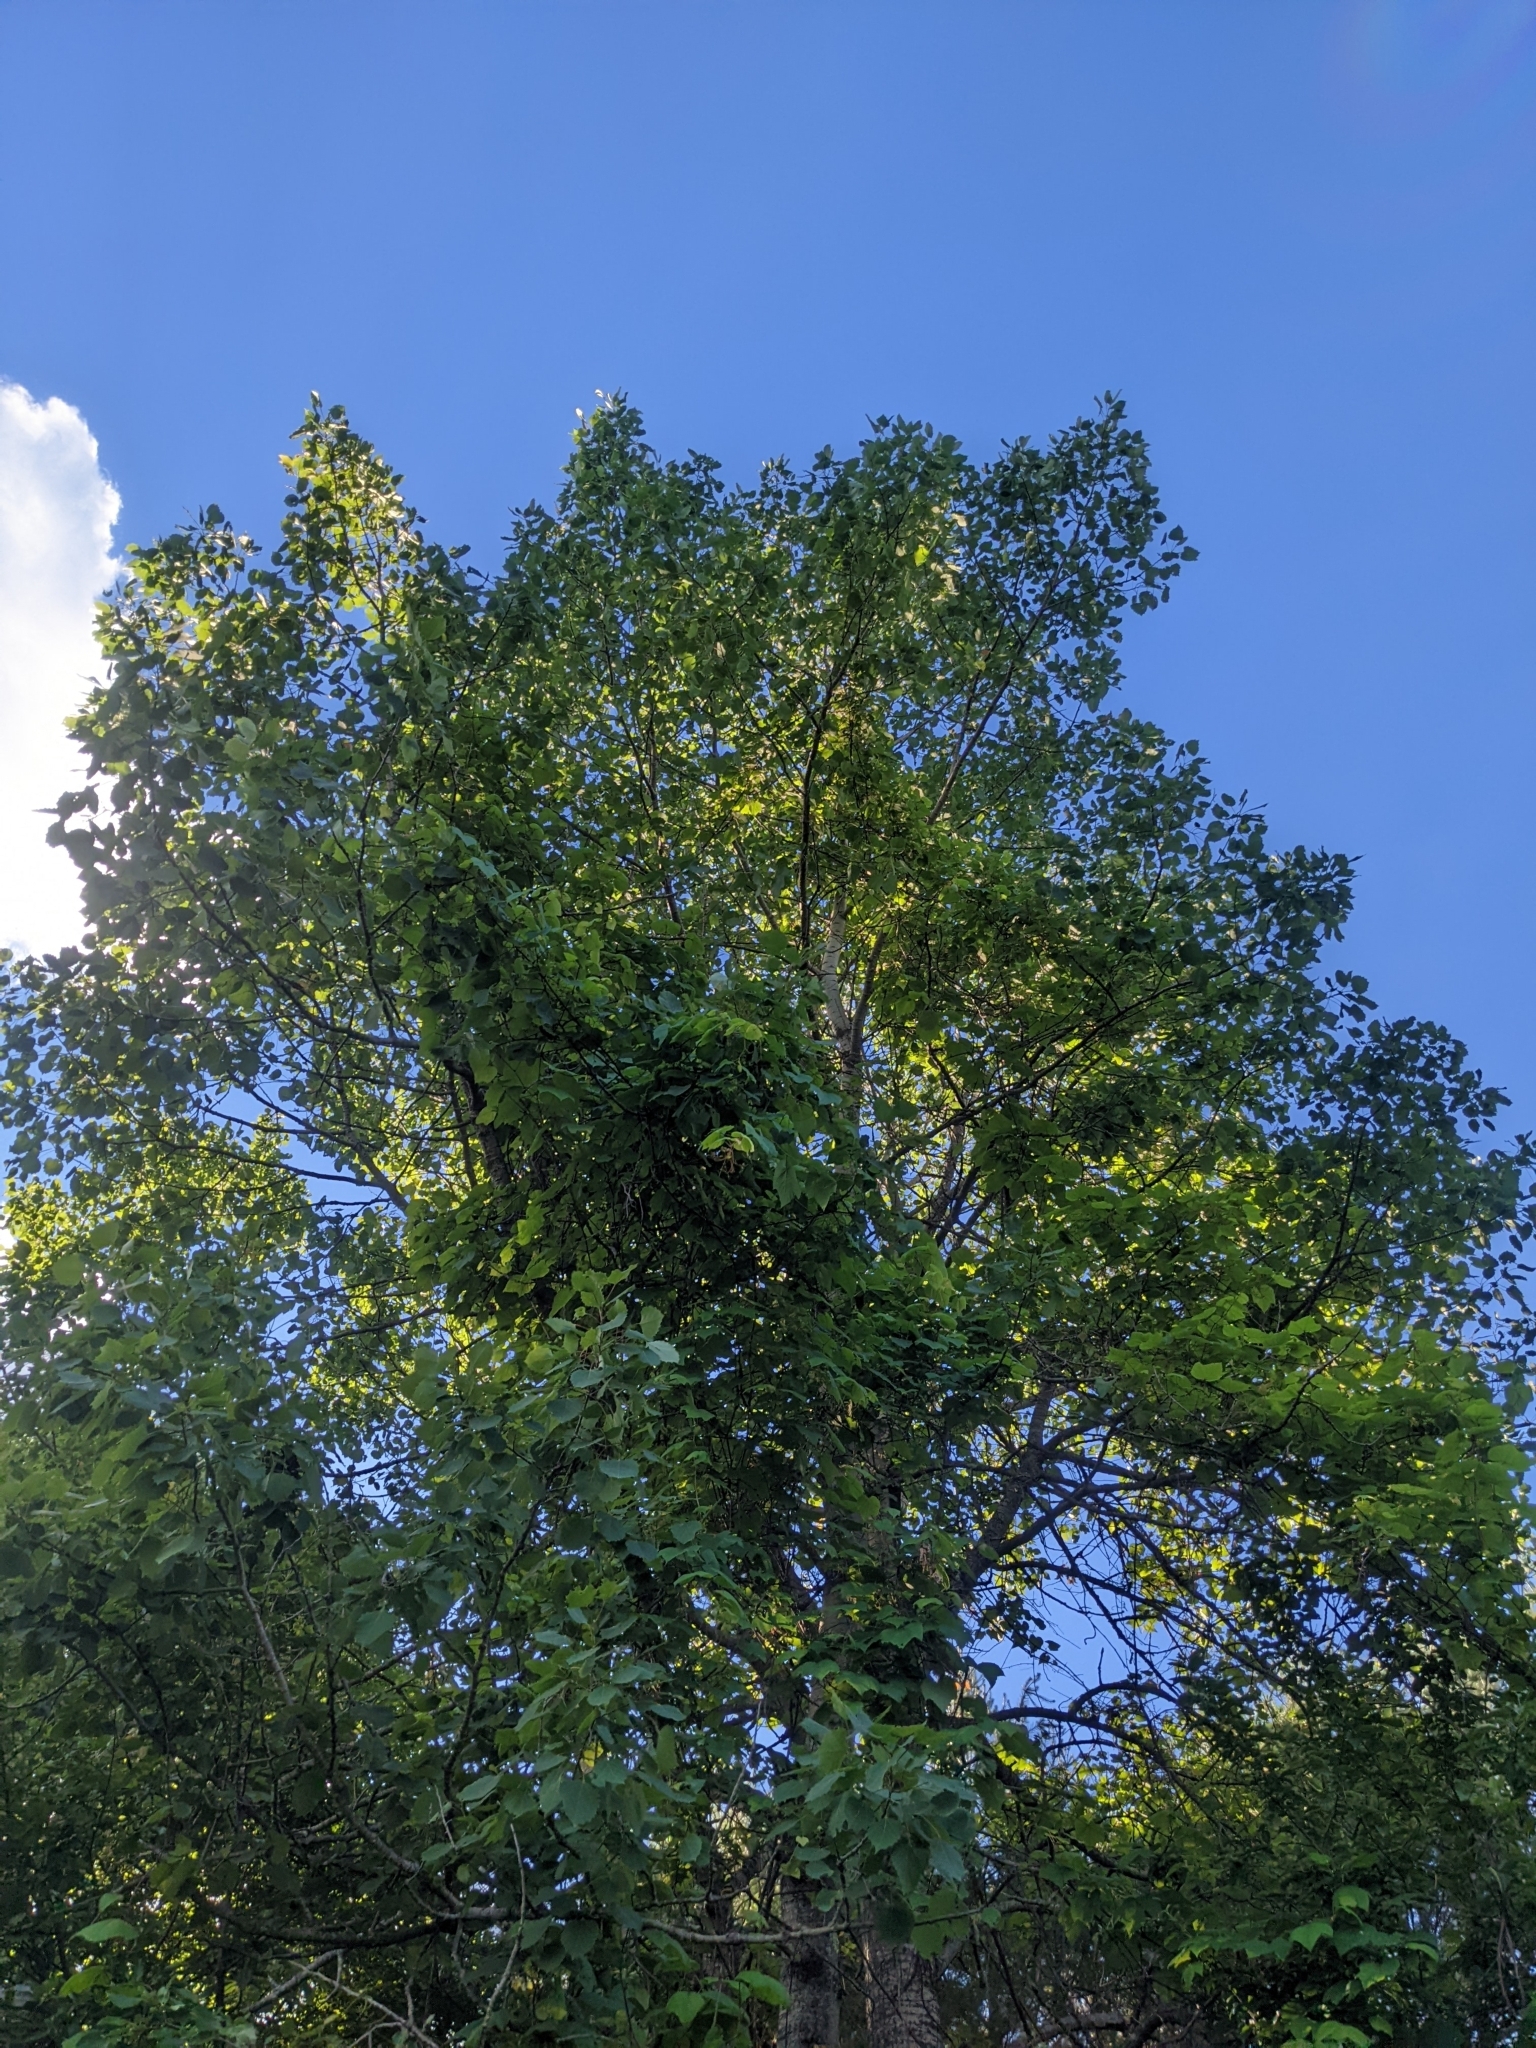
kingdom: Plantae
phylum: Tracheophyta
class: Magnoliopsida
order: Malpighiales
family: Salicaceae
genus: Populus
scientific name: Populus grandidentata
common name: Bigtooth aspen
